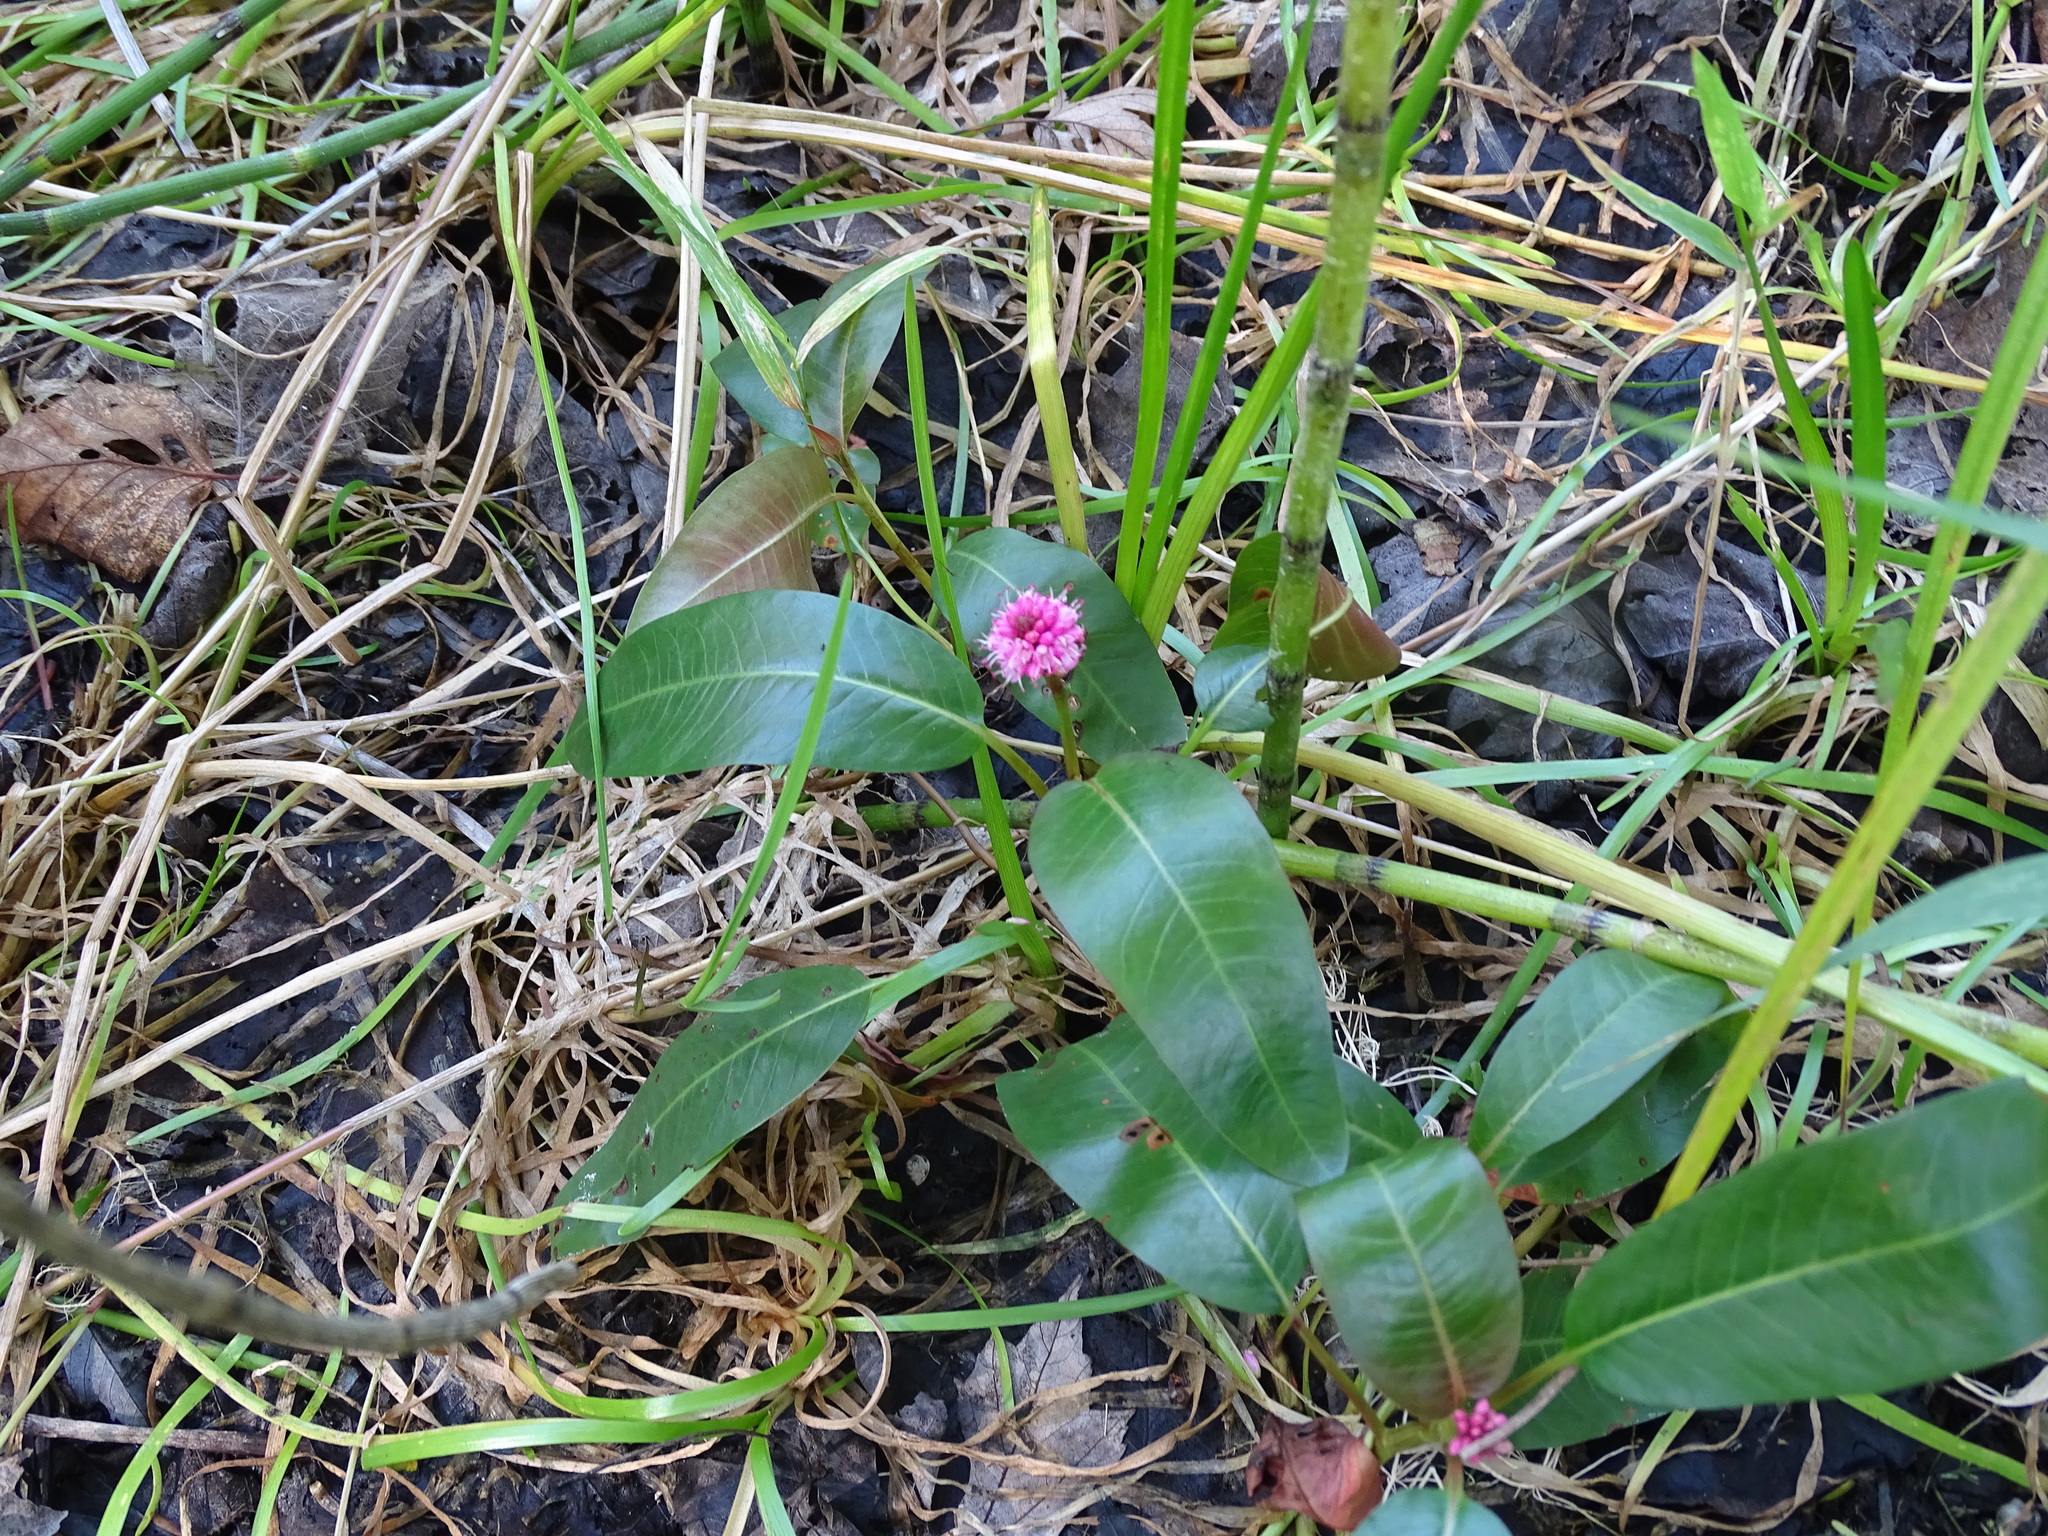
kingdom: Plantae
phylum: Tracheophyta
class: Magnoliopsida
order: Caryophyllales
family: Polygonaceae
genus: Persicaria
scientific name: Persicaria amphibia
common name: Amphibious bistort
